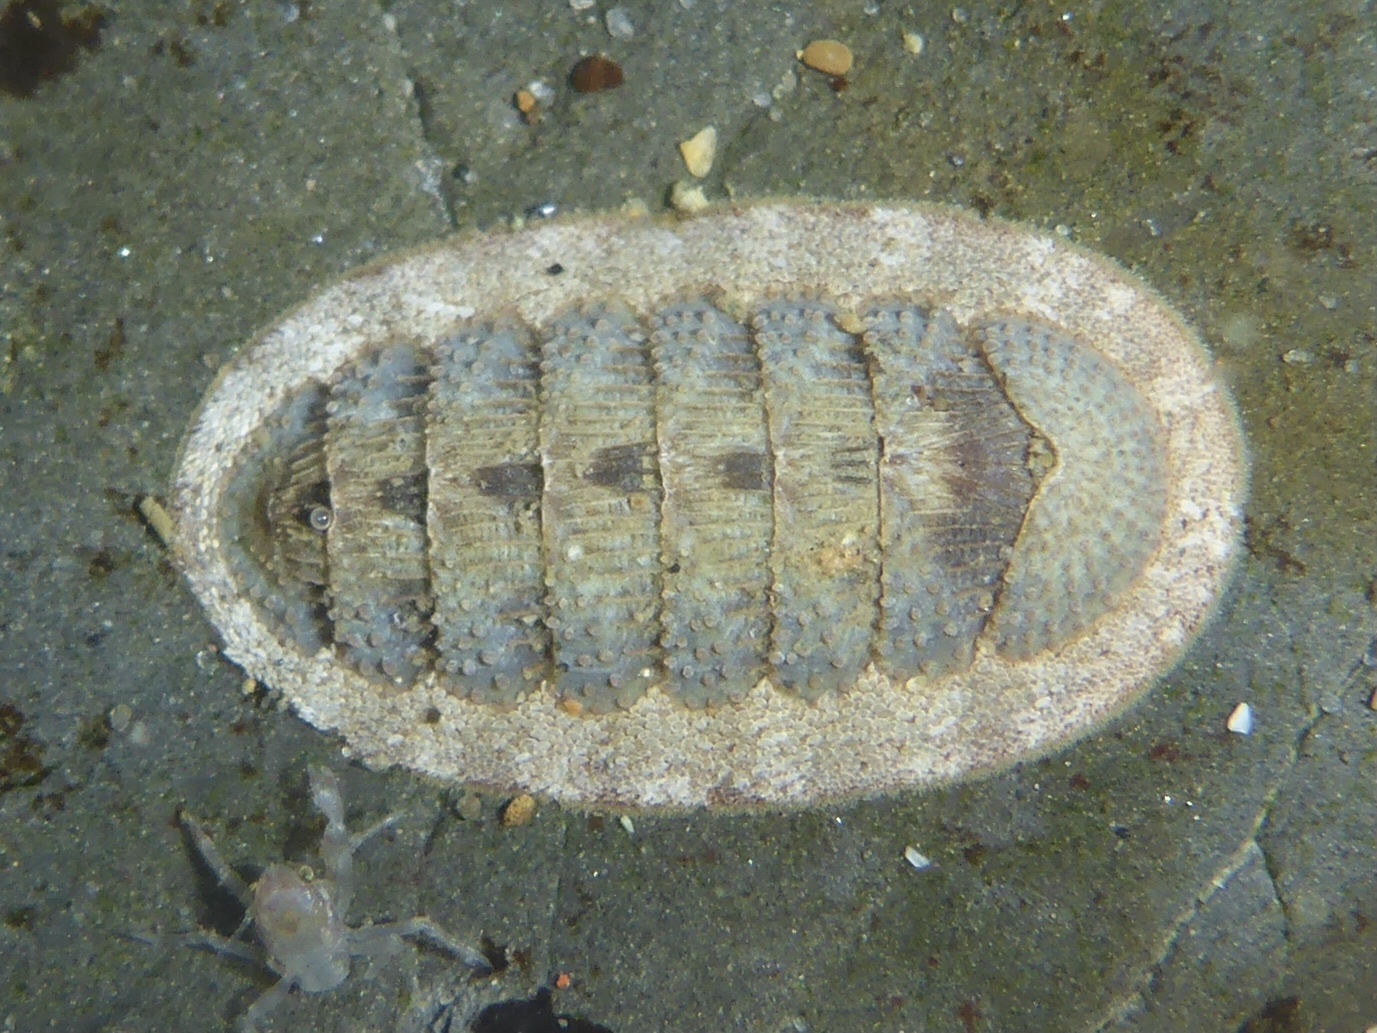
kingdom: Animalia
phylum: Mollusca
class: Polyplacophora
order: Chitonida
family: Ischnochitonidae
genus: Lepidozona
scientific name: Lepidozona cooperi
